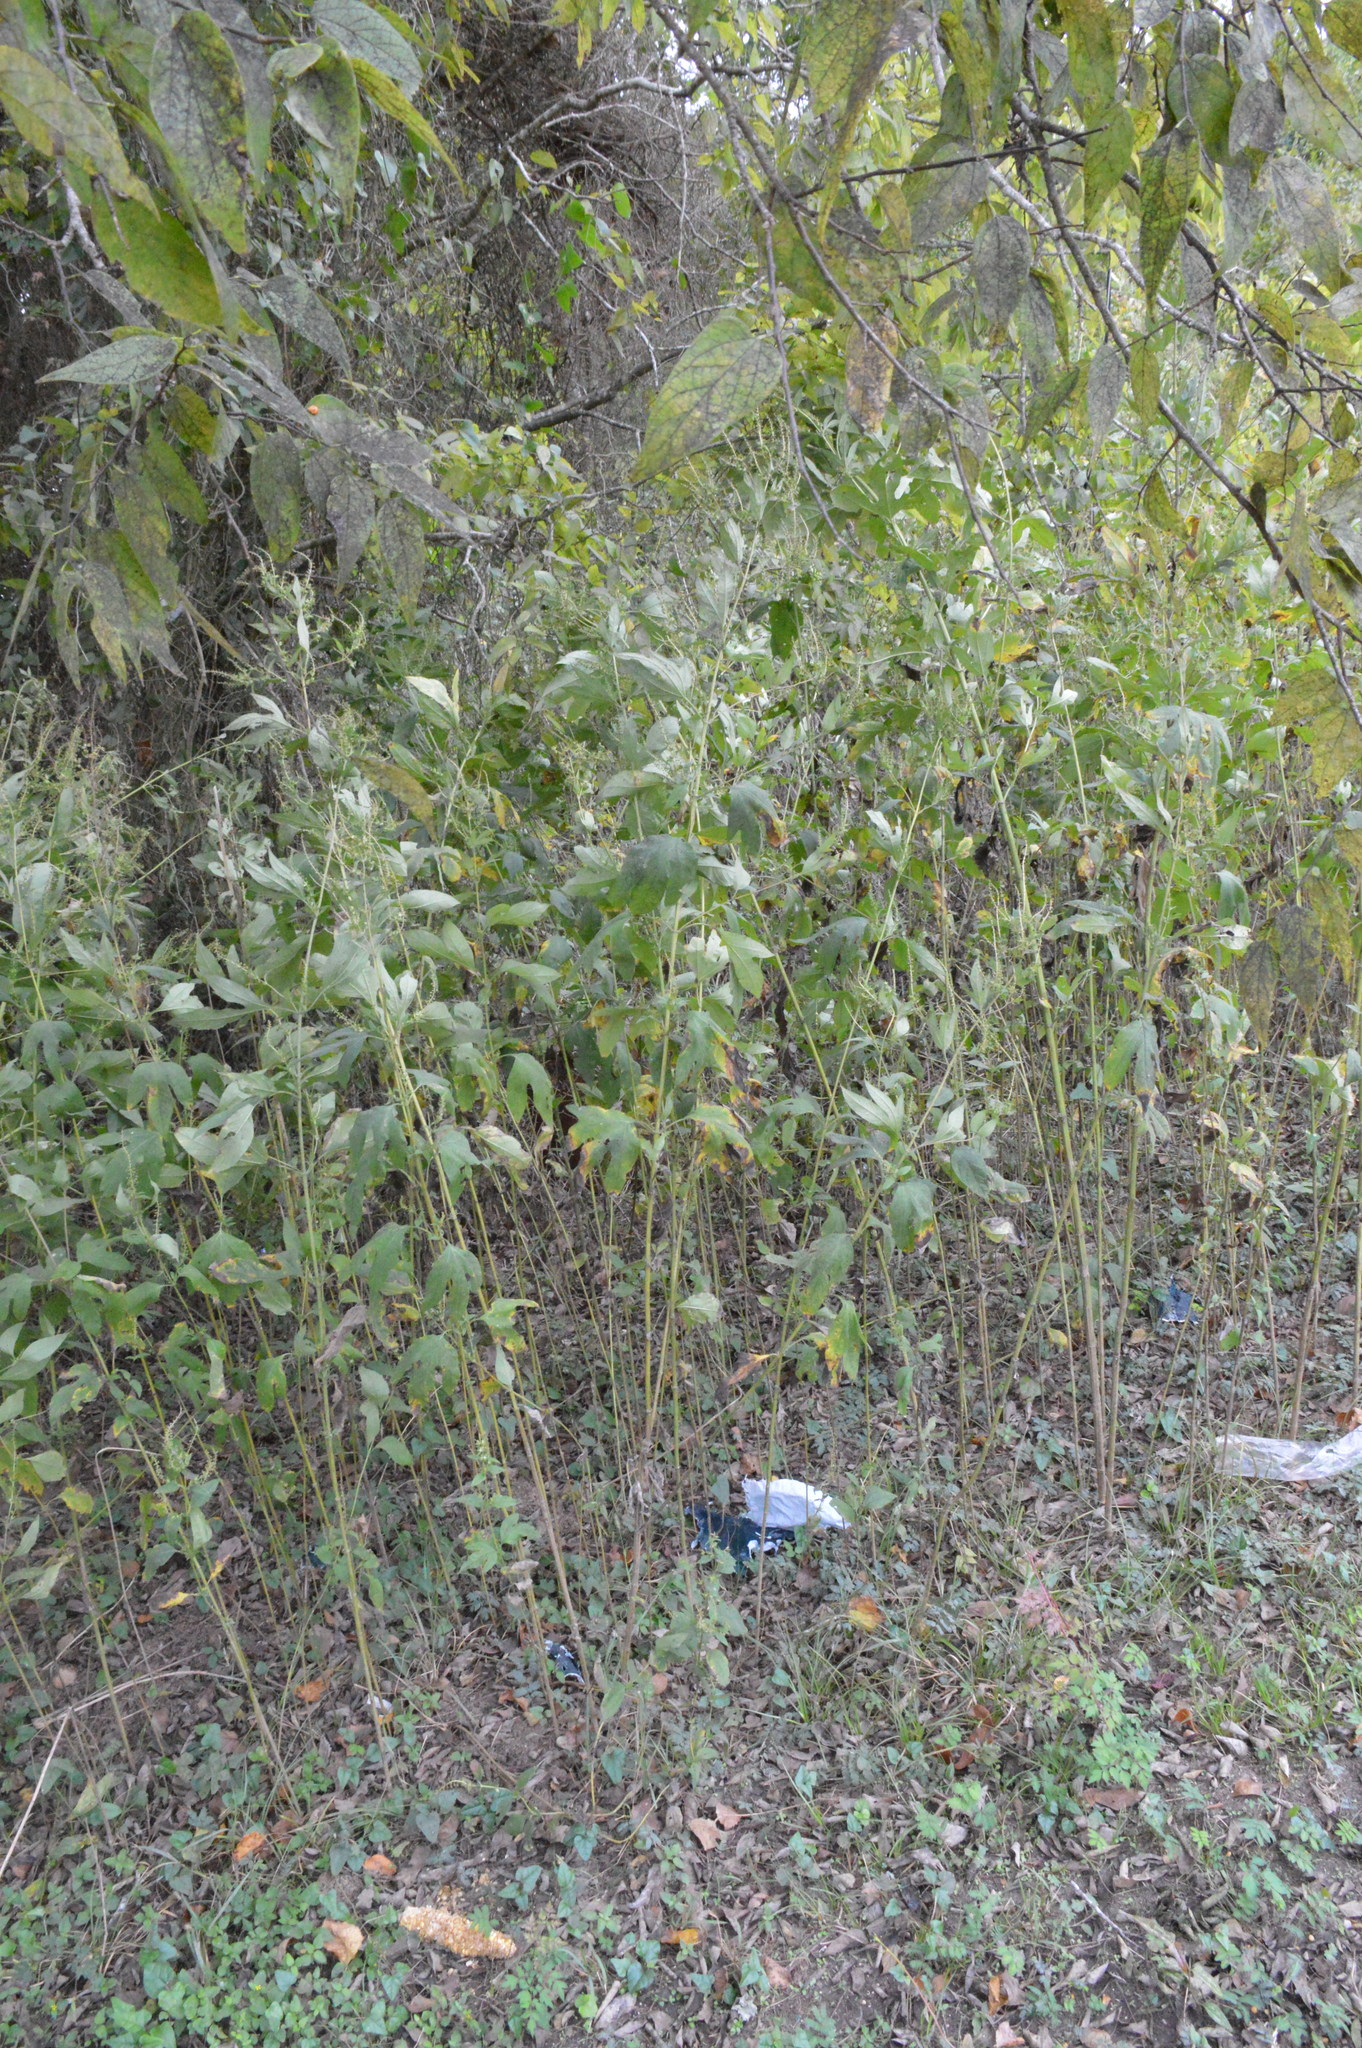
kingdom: Plantae
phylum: Tracheophyta
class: Magnoliopsida
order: Asterales
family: Asteraceae
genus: Ambrosia
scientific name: Ambrosia trifida
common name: Giant ragweed
